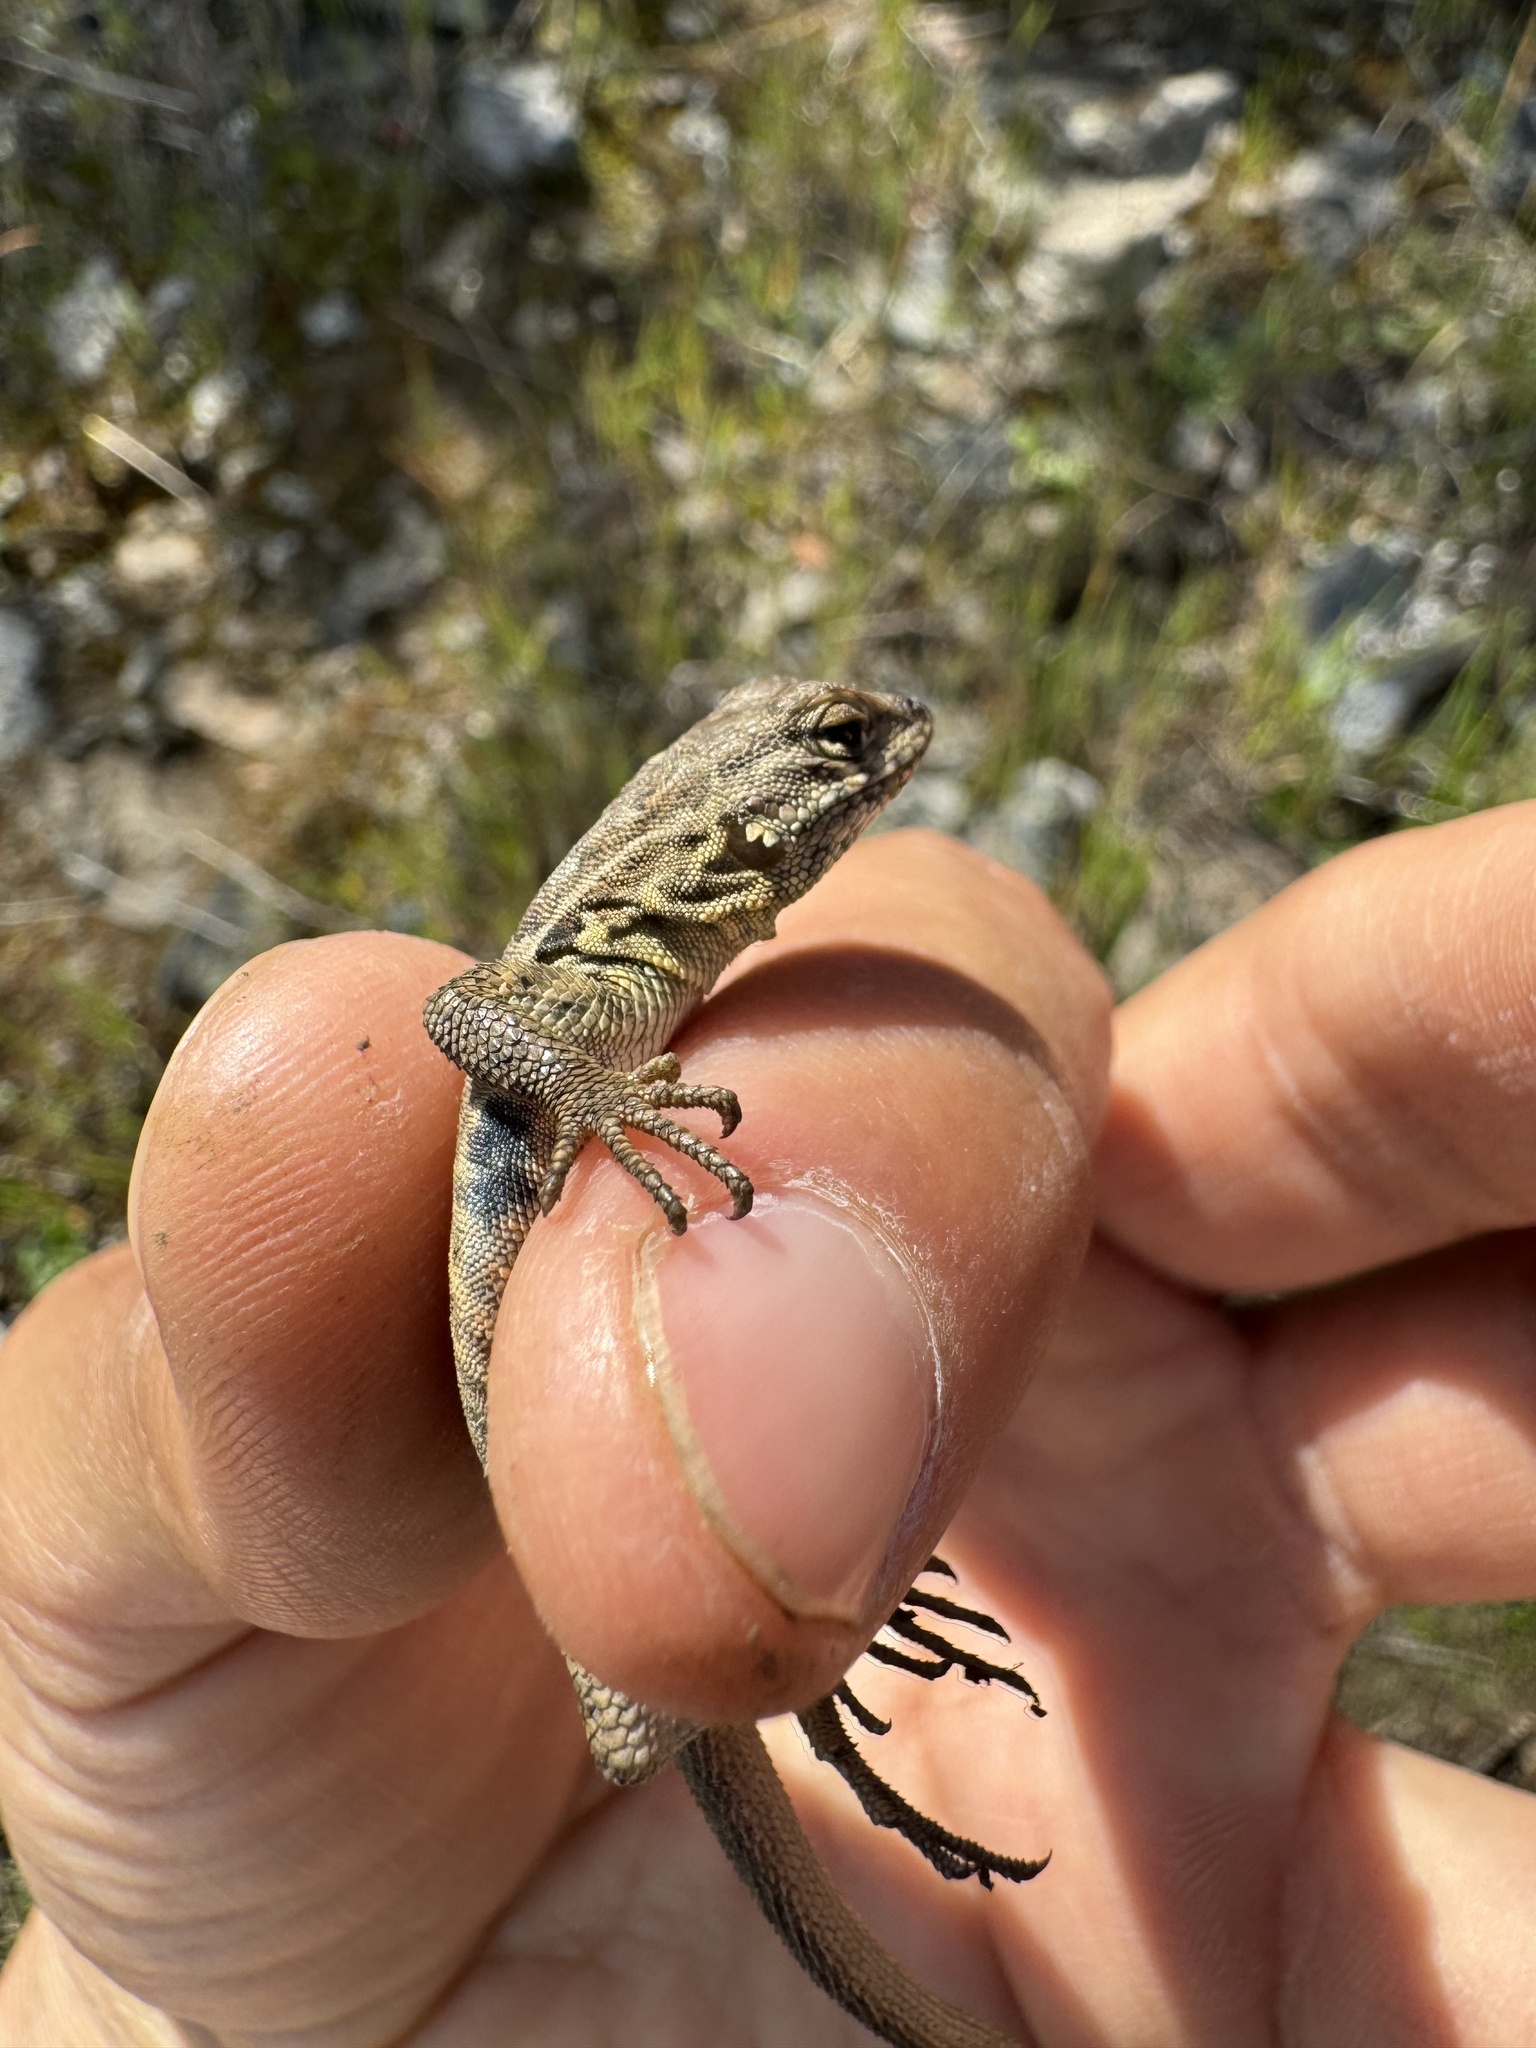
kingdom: Animalia
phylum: Chordata
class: Squamata
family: Phrynosomatidae
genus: Uta
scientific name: Uta stansburiana
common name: Side-blotched lizard
